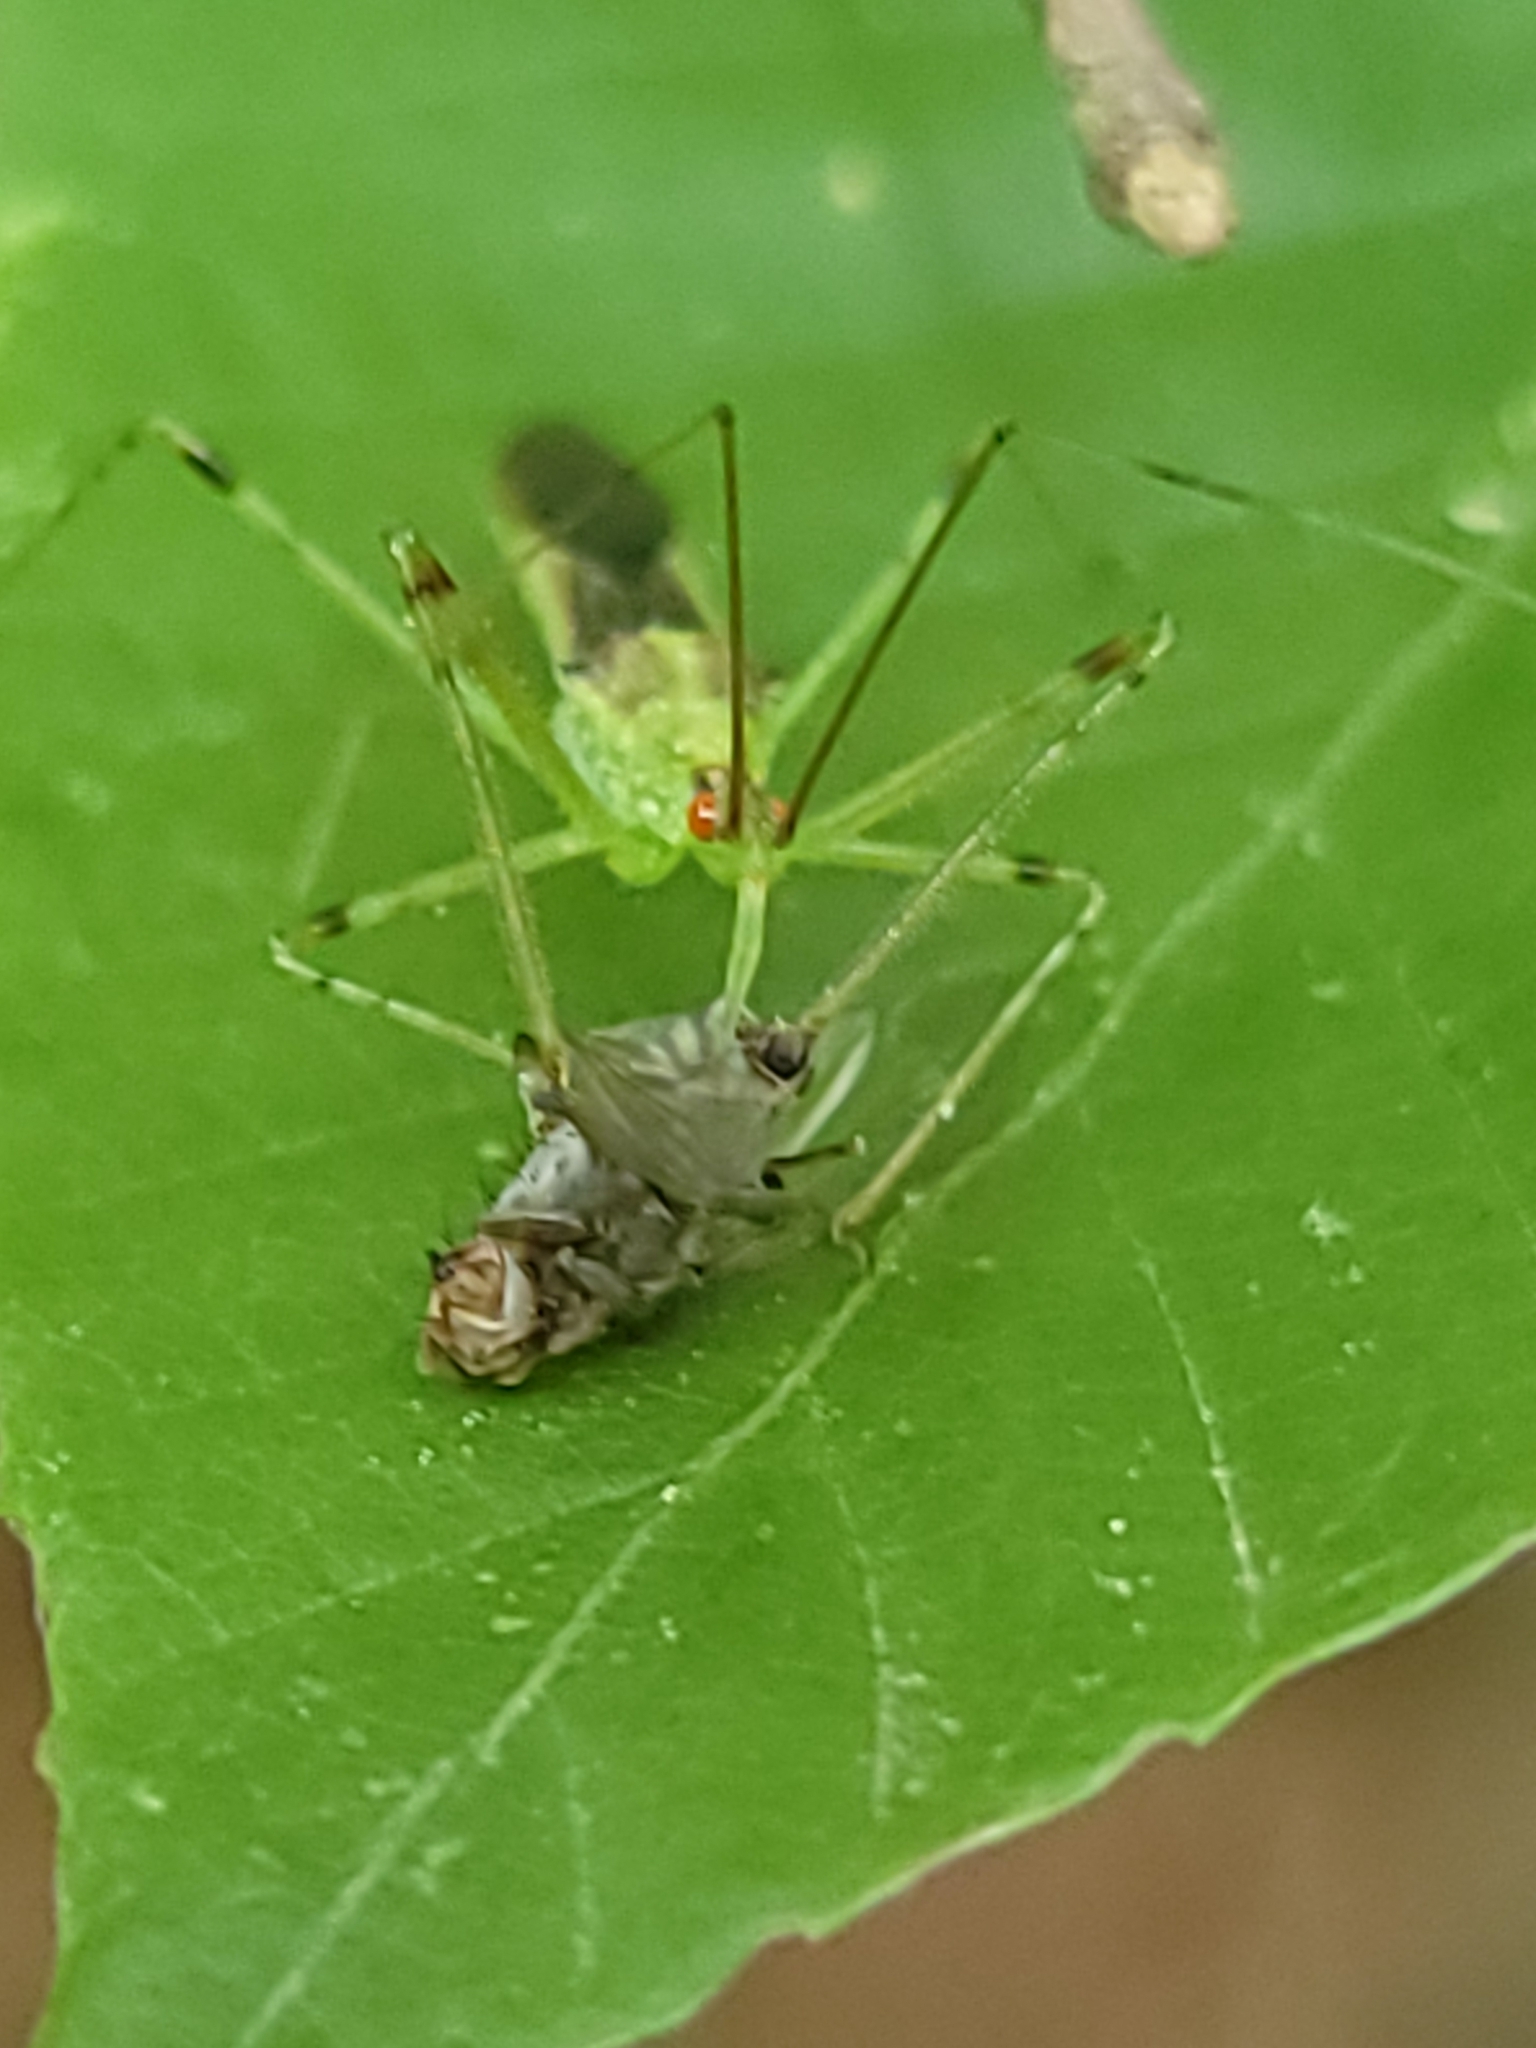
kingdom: Animalia
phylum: Arthropoda
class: Insecta
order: Hemiptera
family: Reduviidae
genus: Zelus
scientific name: Zelus luridus
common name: Pale green assassin bug
